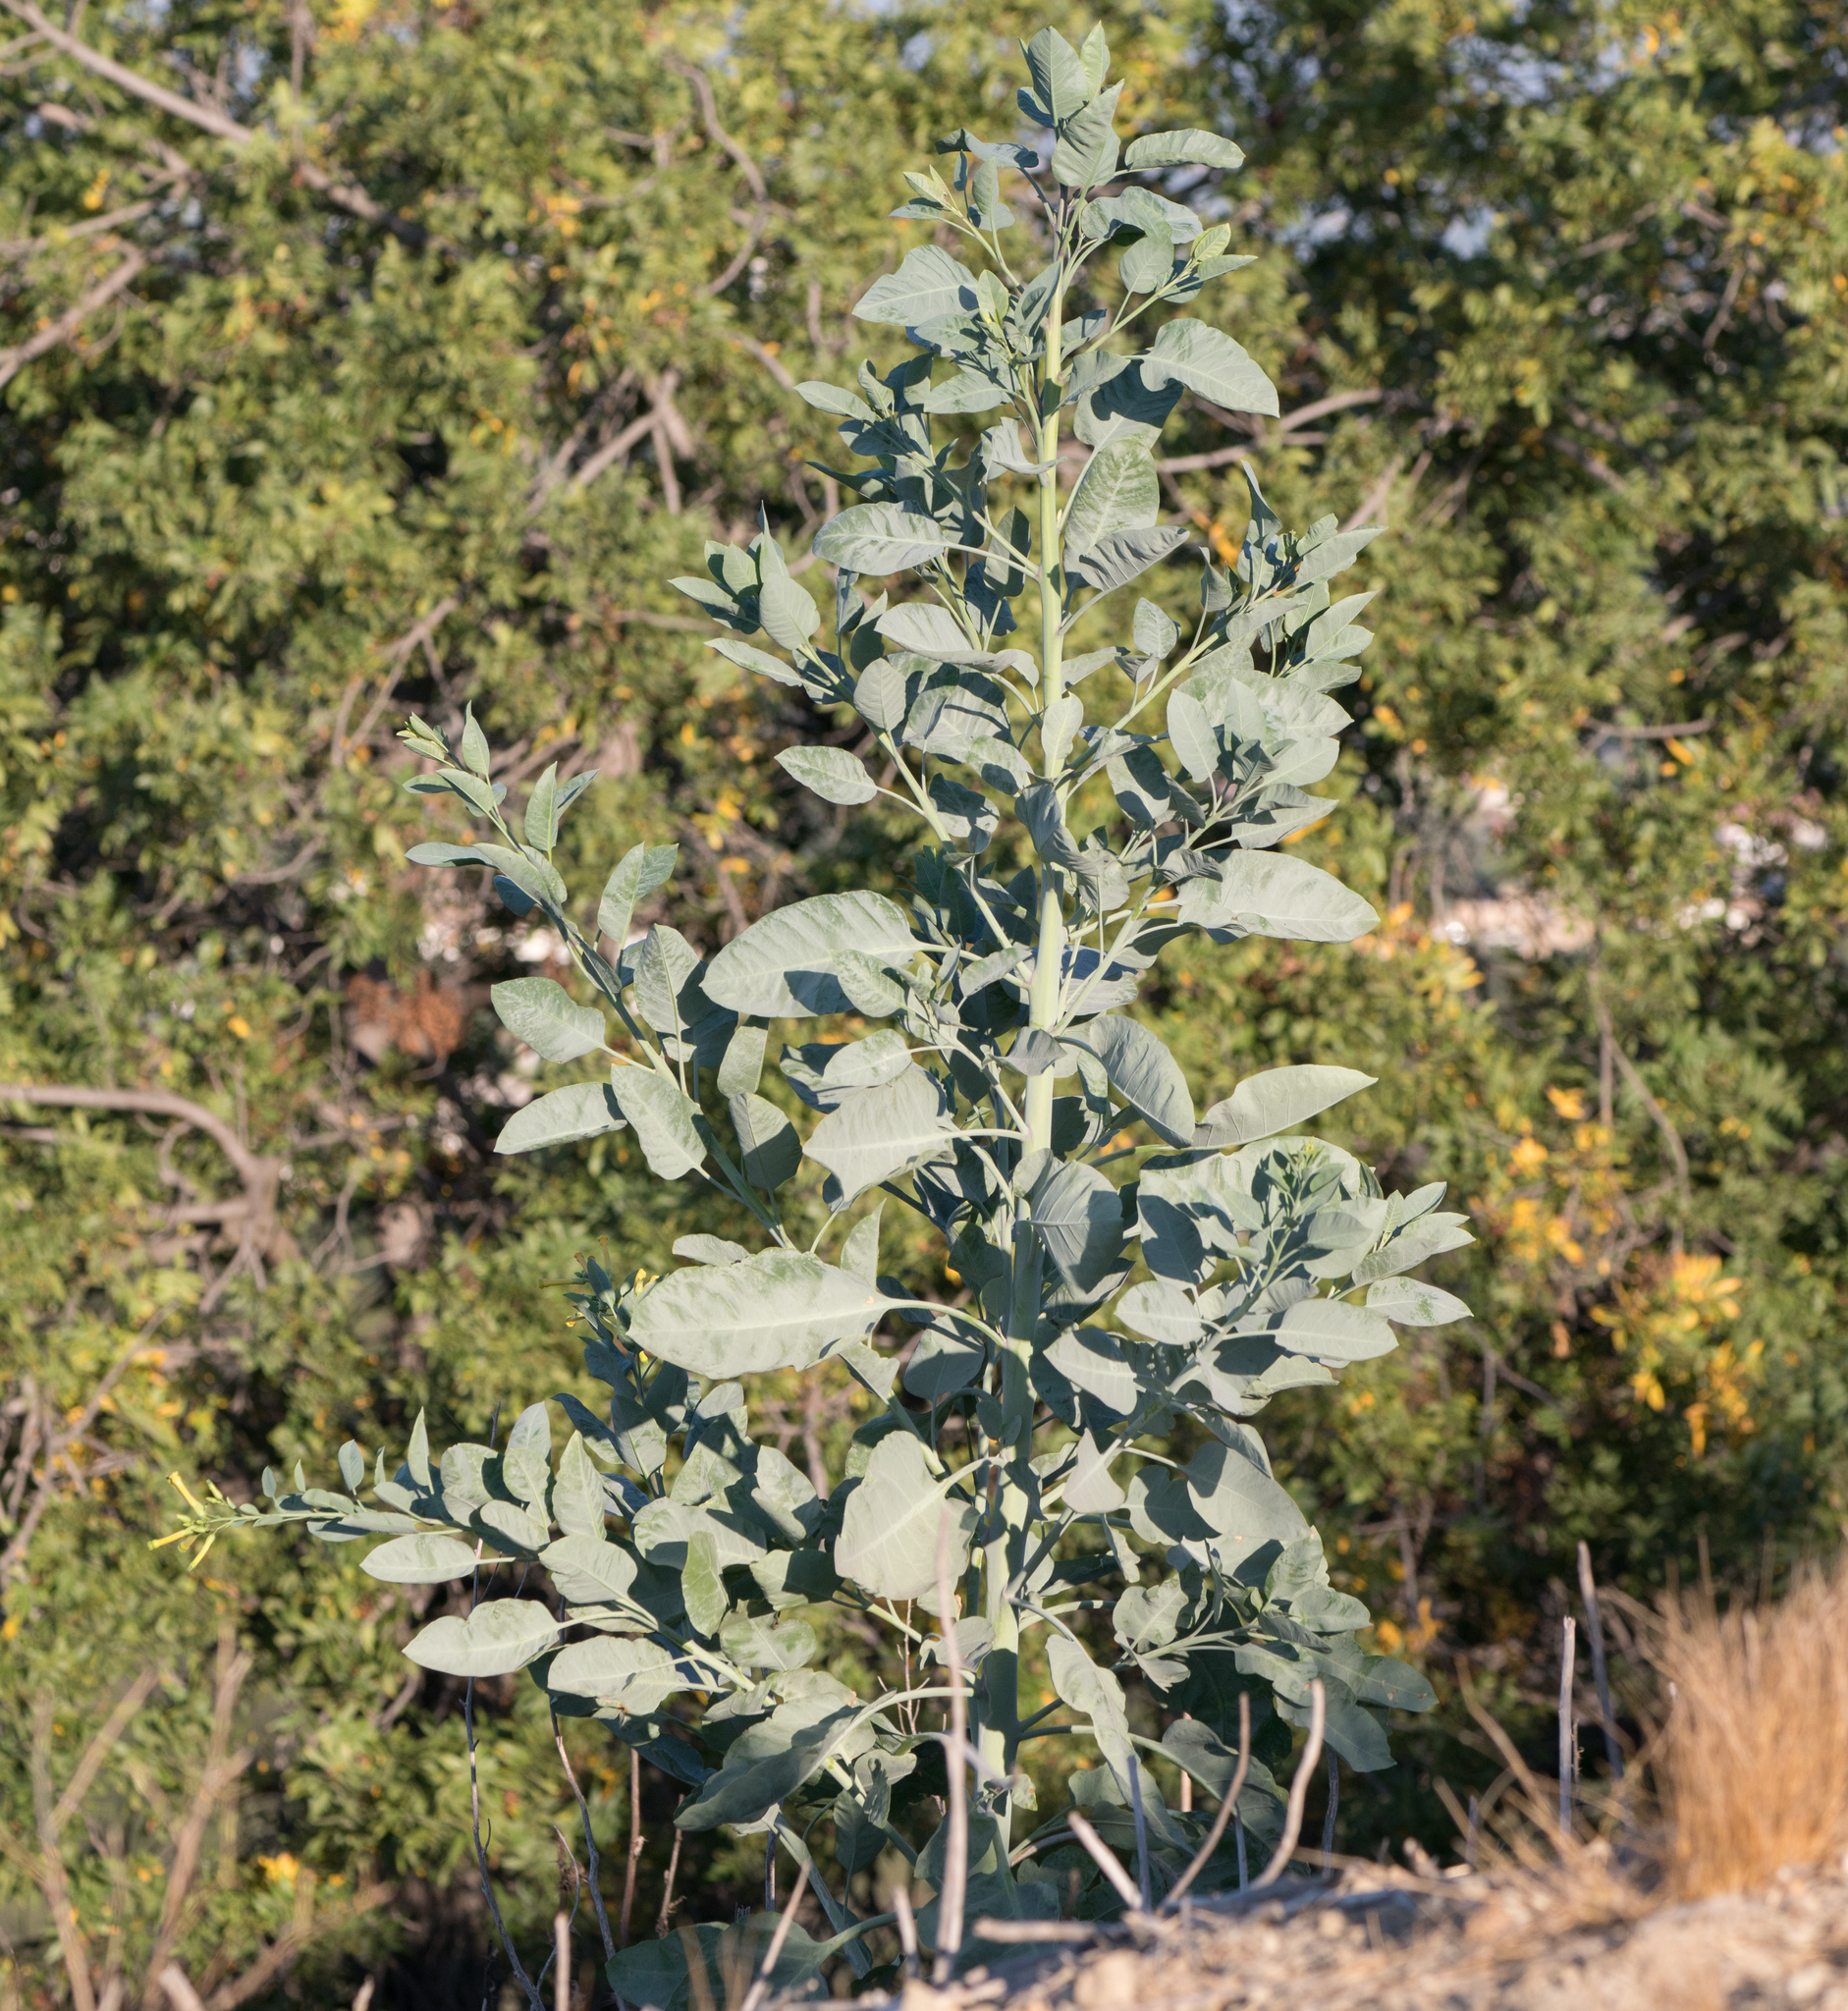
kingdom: Plantae
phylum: Tracheophyta
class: Magnoliopsida
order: Solanales
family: Solanaceae
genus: Nicotiana
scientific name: Nicotiana glauca
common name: Tree tobacco
